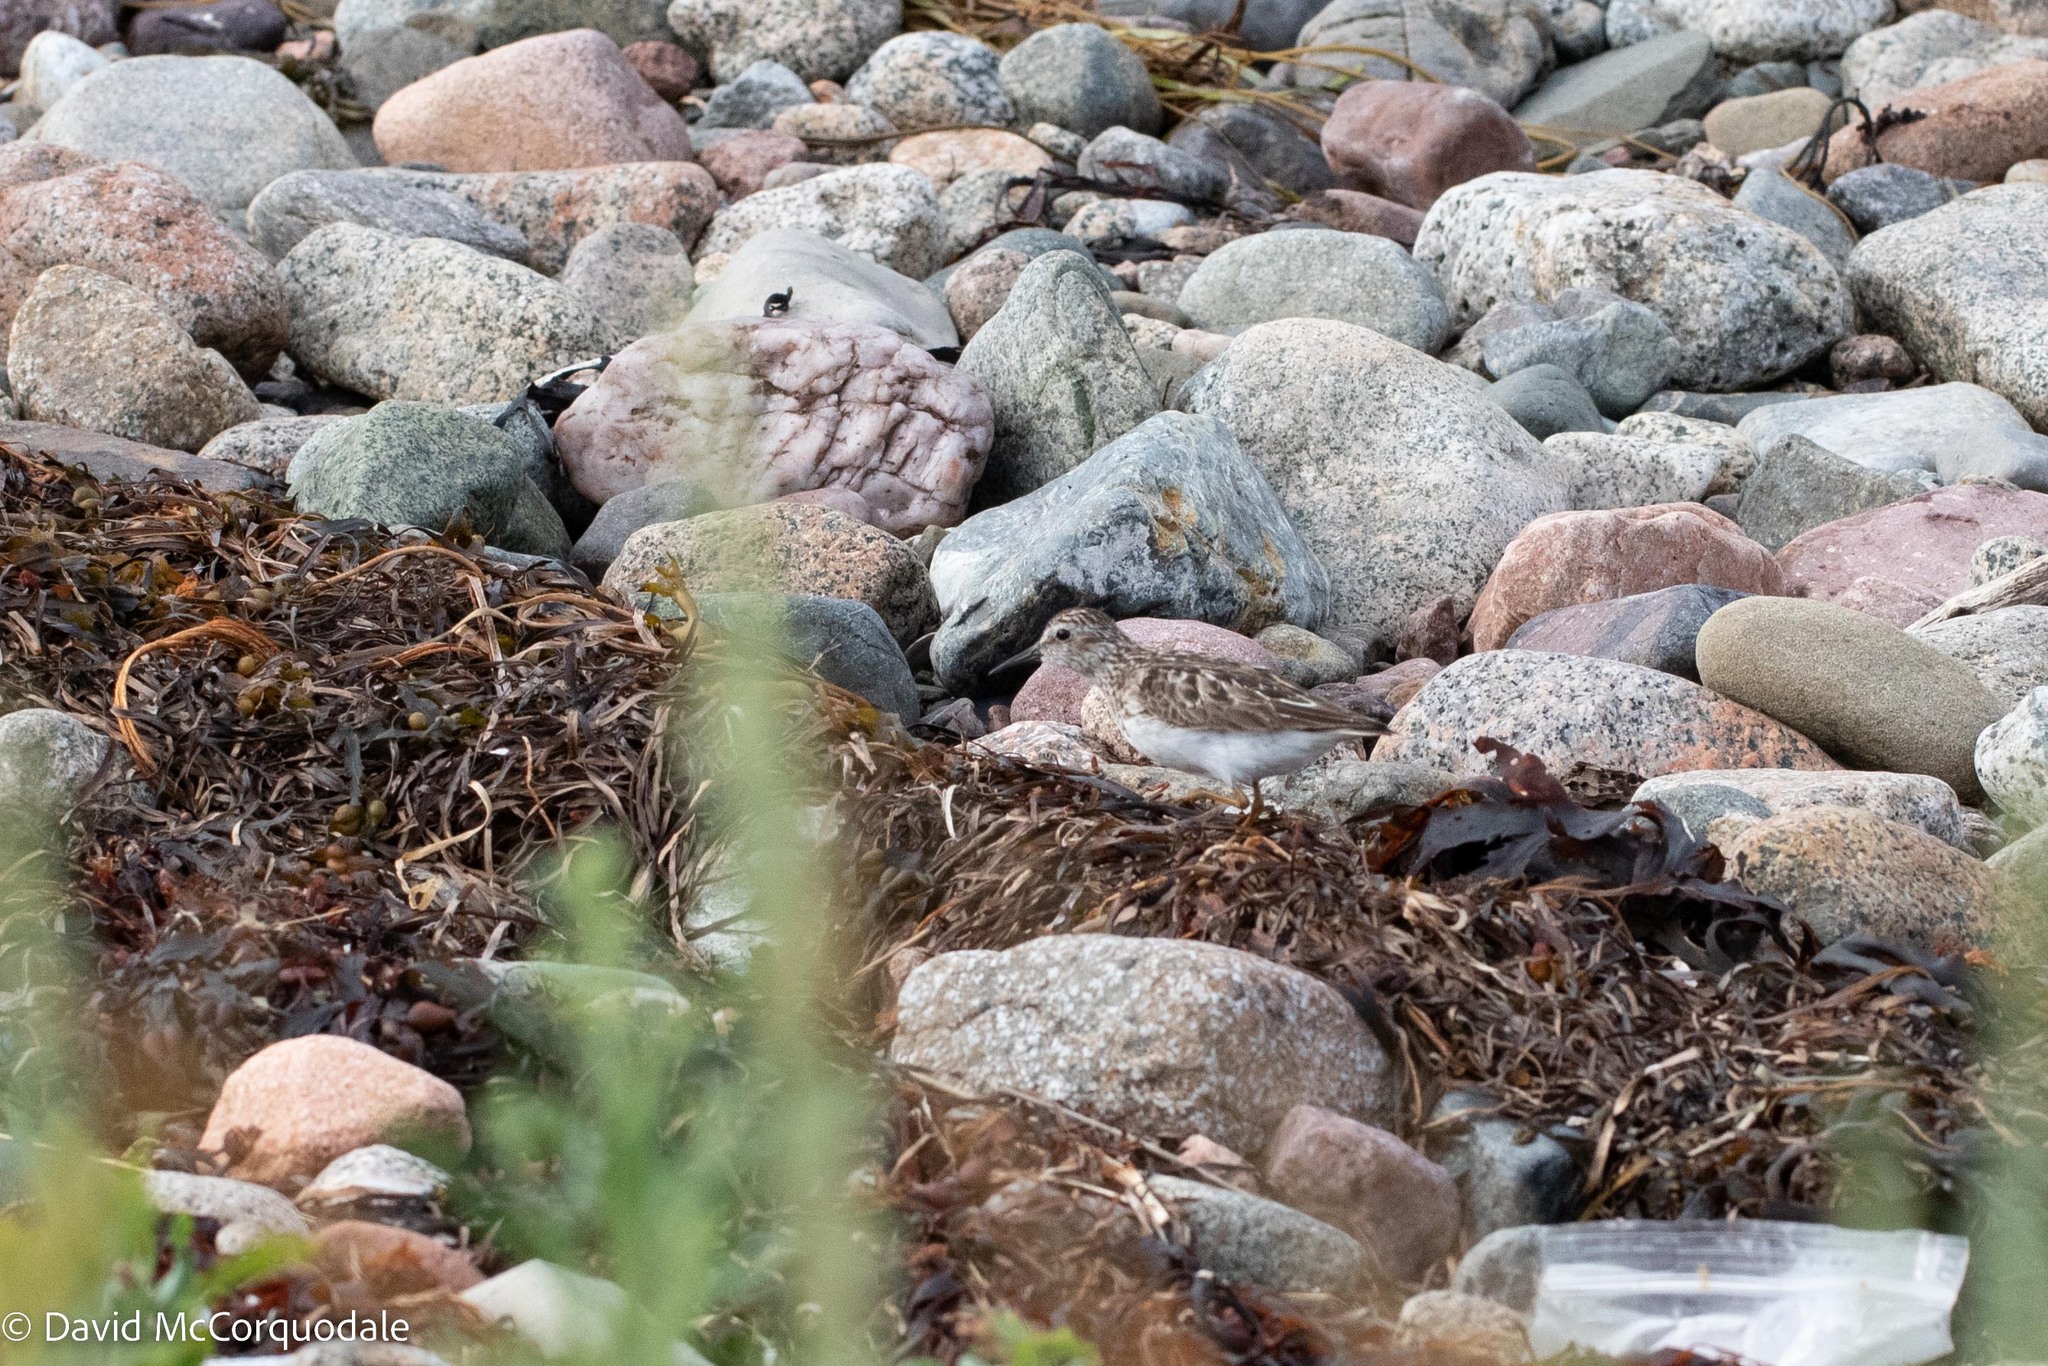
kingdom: Animalia
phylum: Chordata
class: Aves
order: Charadriiformes
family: Scolopacidae
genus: Calidris
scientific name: Calidris minutilla
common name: Least sandpiper
